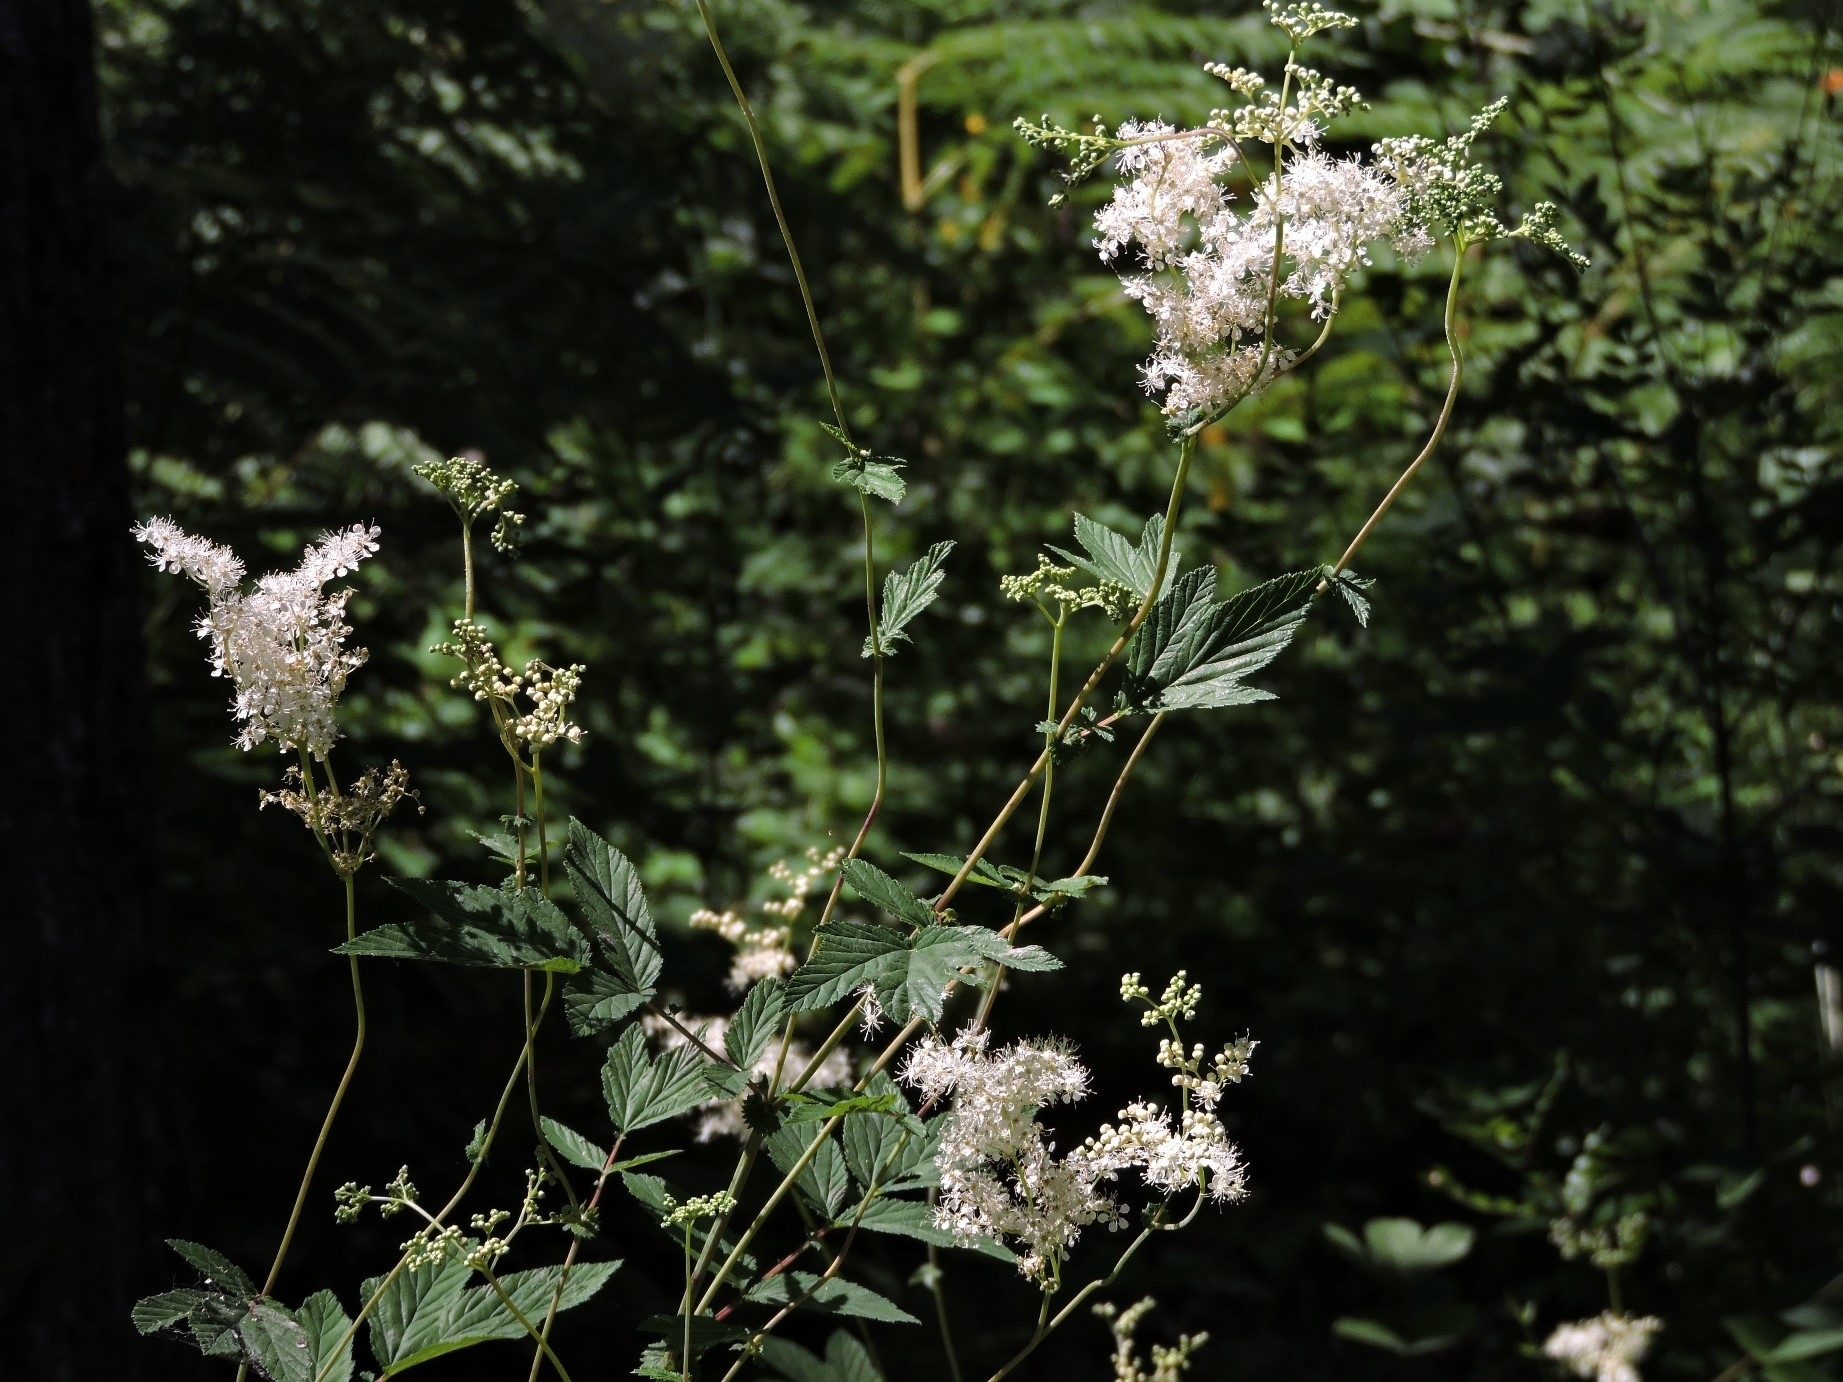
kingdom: Plantae
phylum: Tracheophyta
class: Magnoliopsida
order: Rosales
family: Rosaceae
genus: Filipendula
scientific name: Filipendula ulmaria
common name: Meadowsweet
